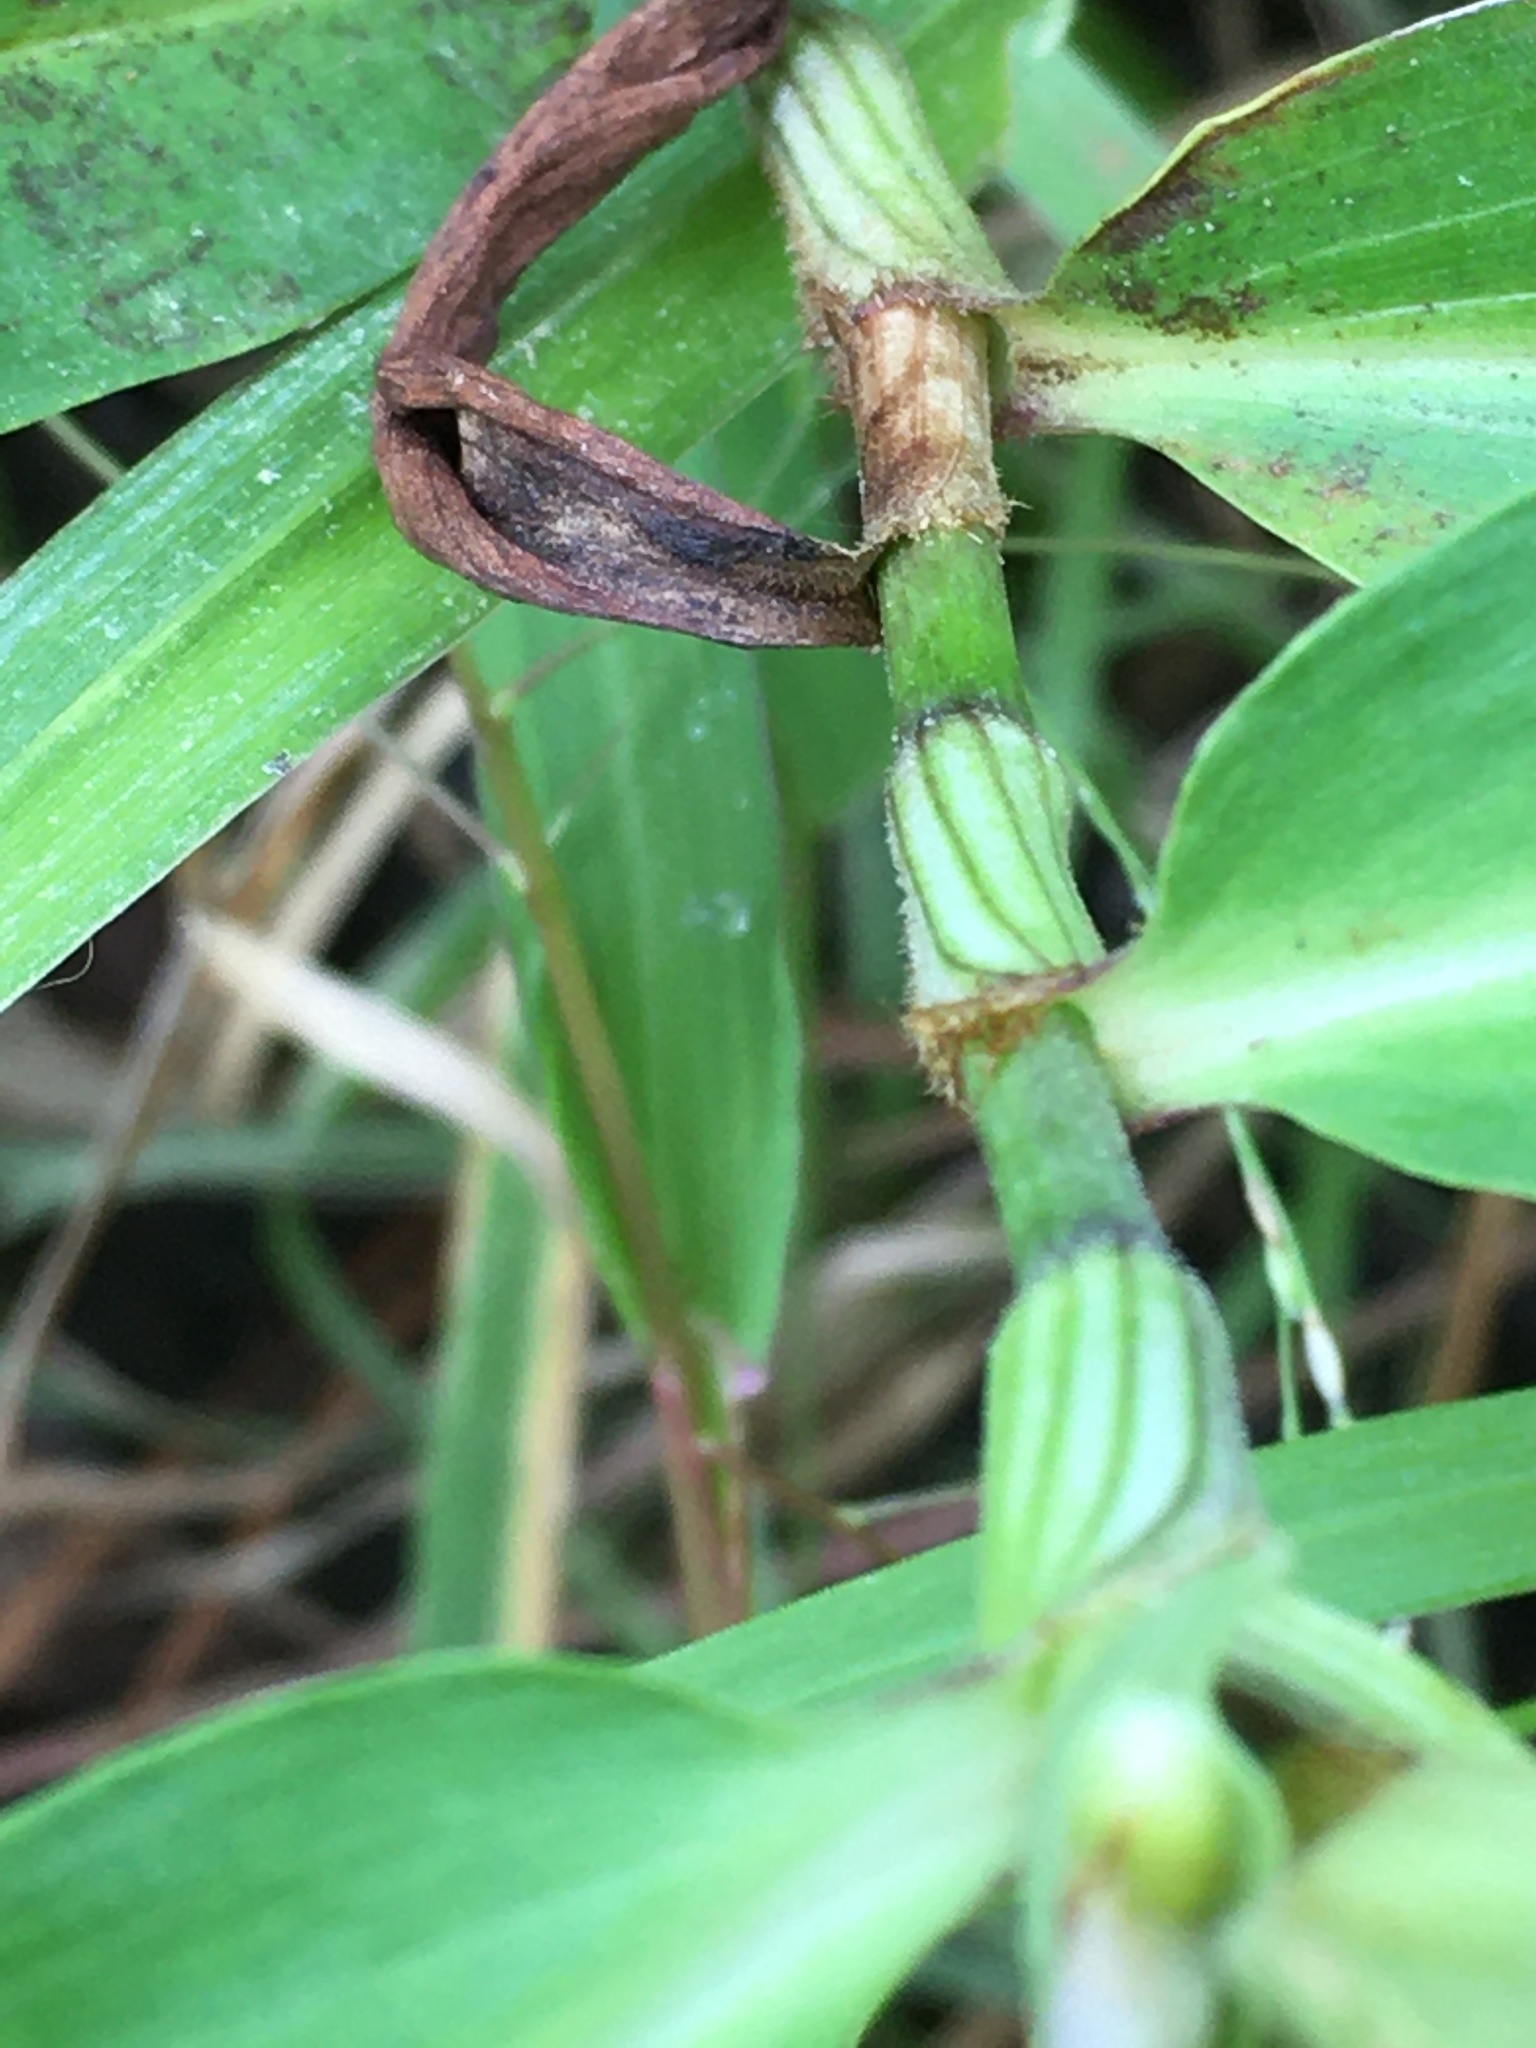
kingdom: Plantae
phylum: Tracheophyta
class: Liliopsida
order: Commelinales
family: Commelinaceae
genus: Commelina
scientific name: Commelina virginica
